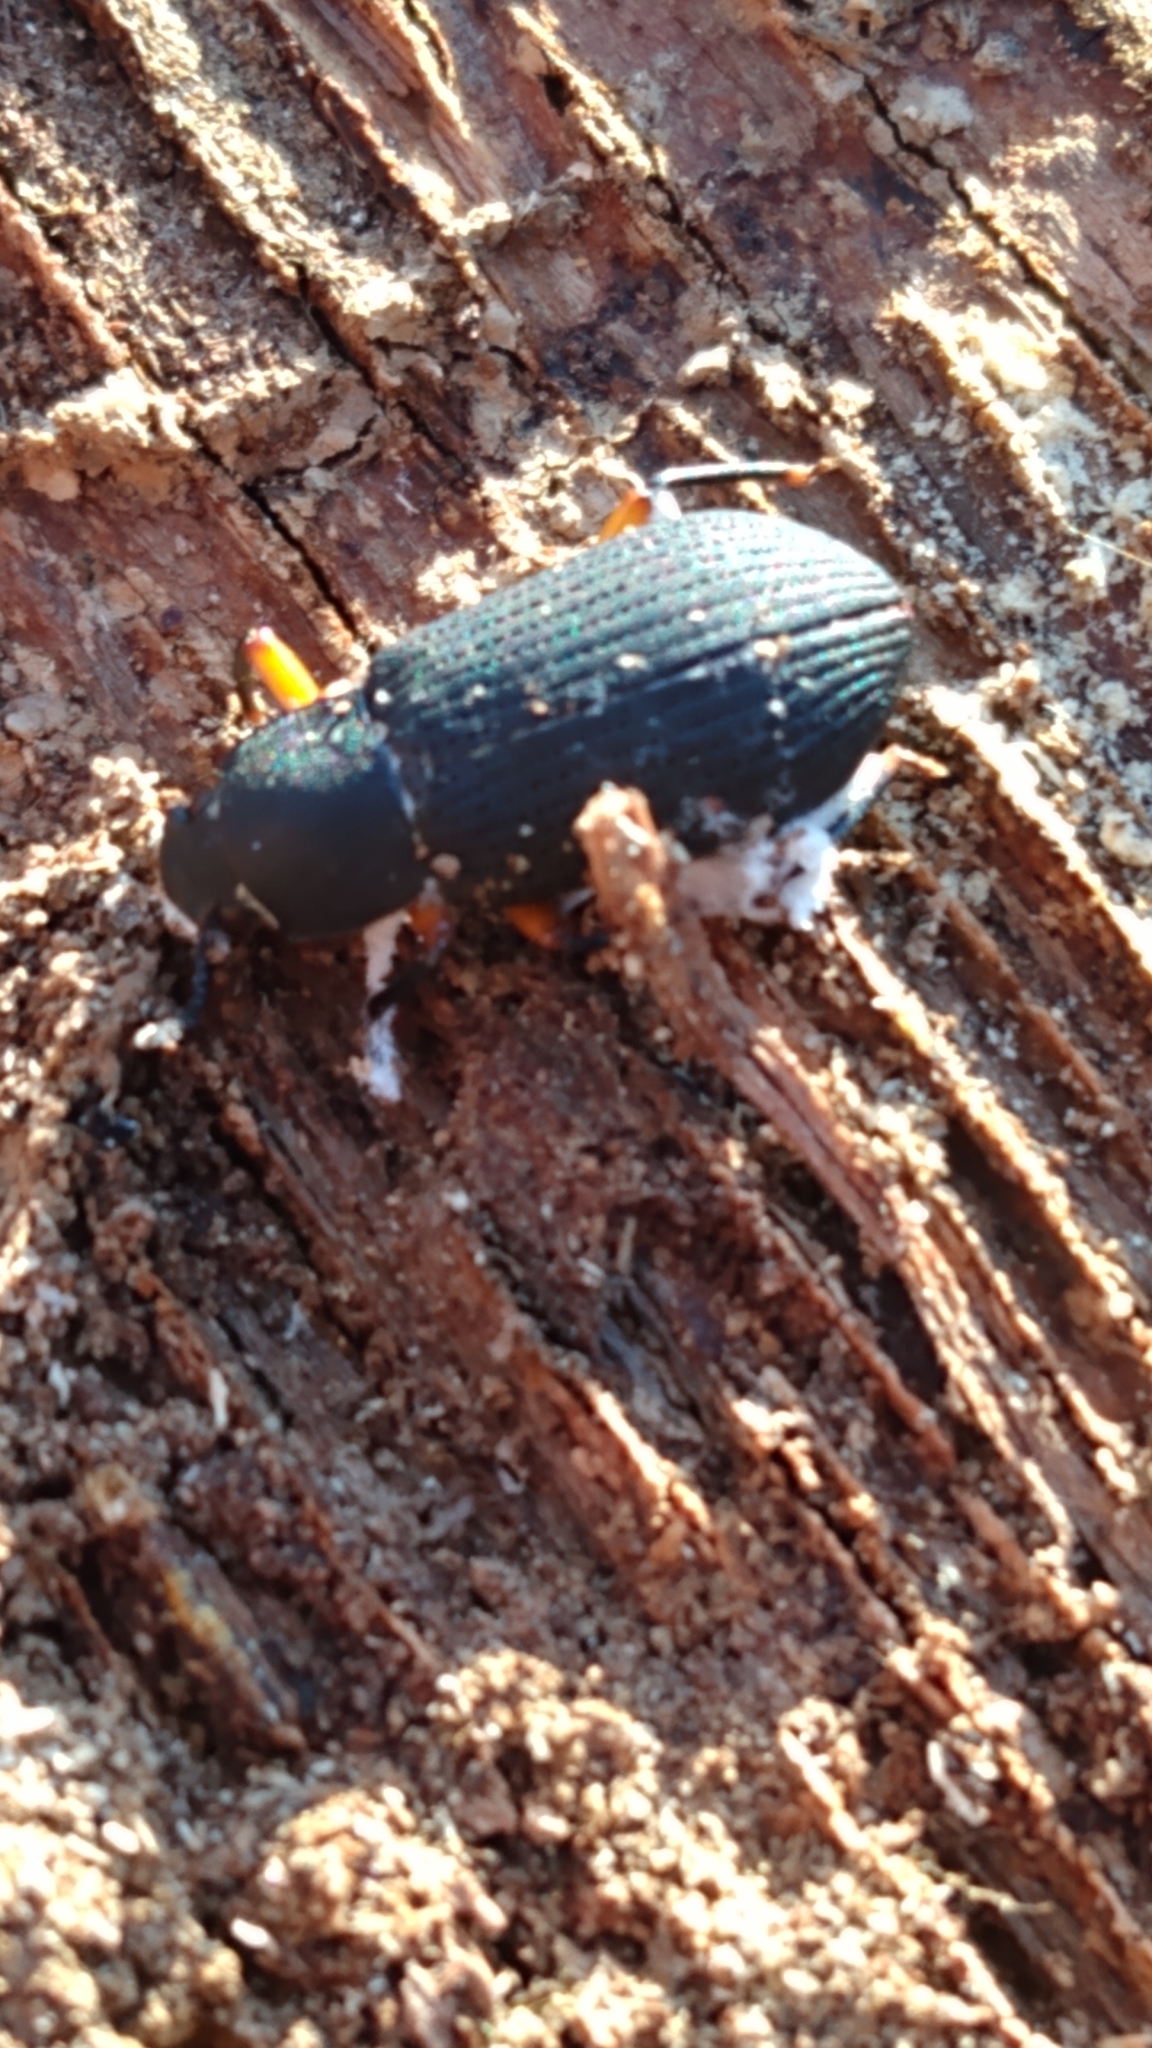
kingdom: Animalia
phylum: Arthropoda
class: Insecta
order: Coleoptera
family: Tenebrionidae
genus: Haplandrus
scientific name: Haplandrus fulvipes
